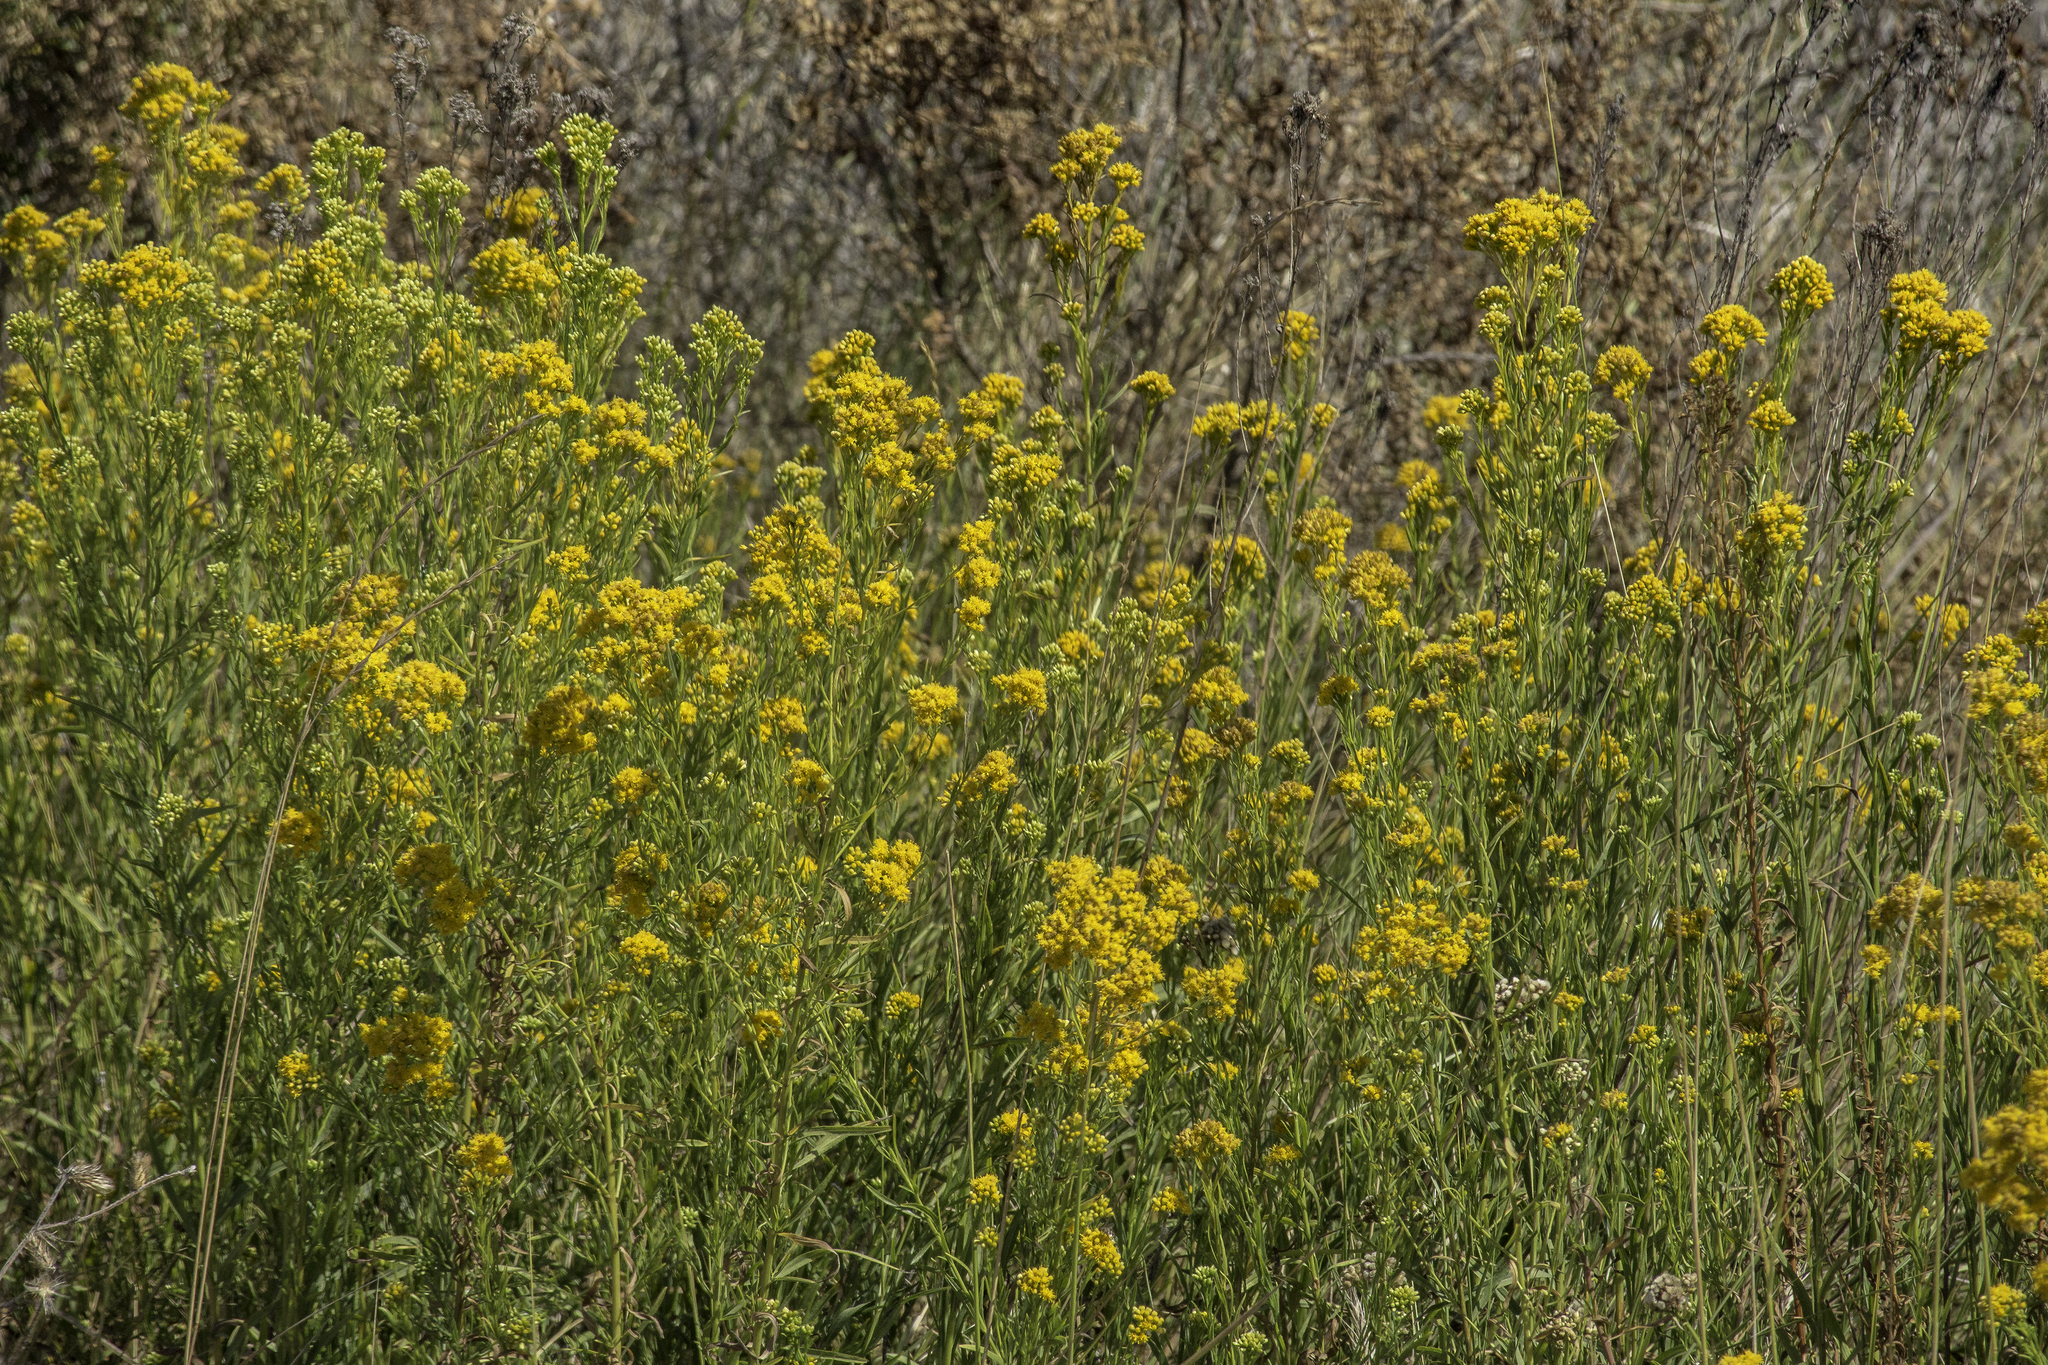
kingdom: Plantae
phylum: Tracheophyta
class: Magnoliopsida
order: Asterales
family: Asteraceae
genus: Euthamia
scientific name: Euthamia occidentalis
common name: Western goldentop
